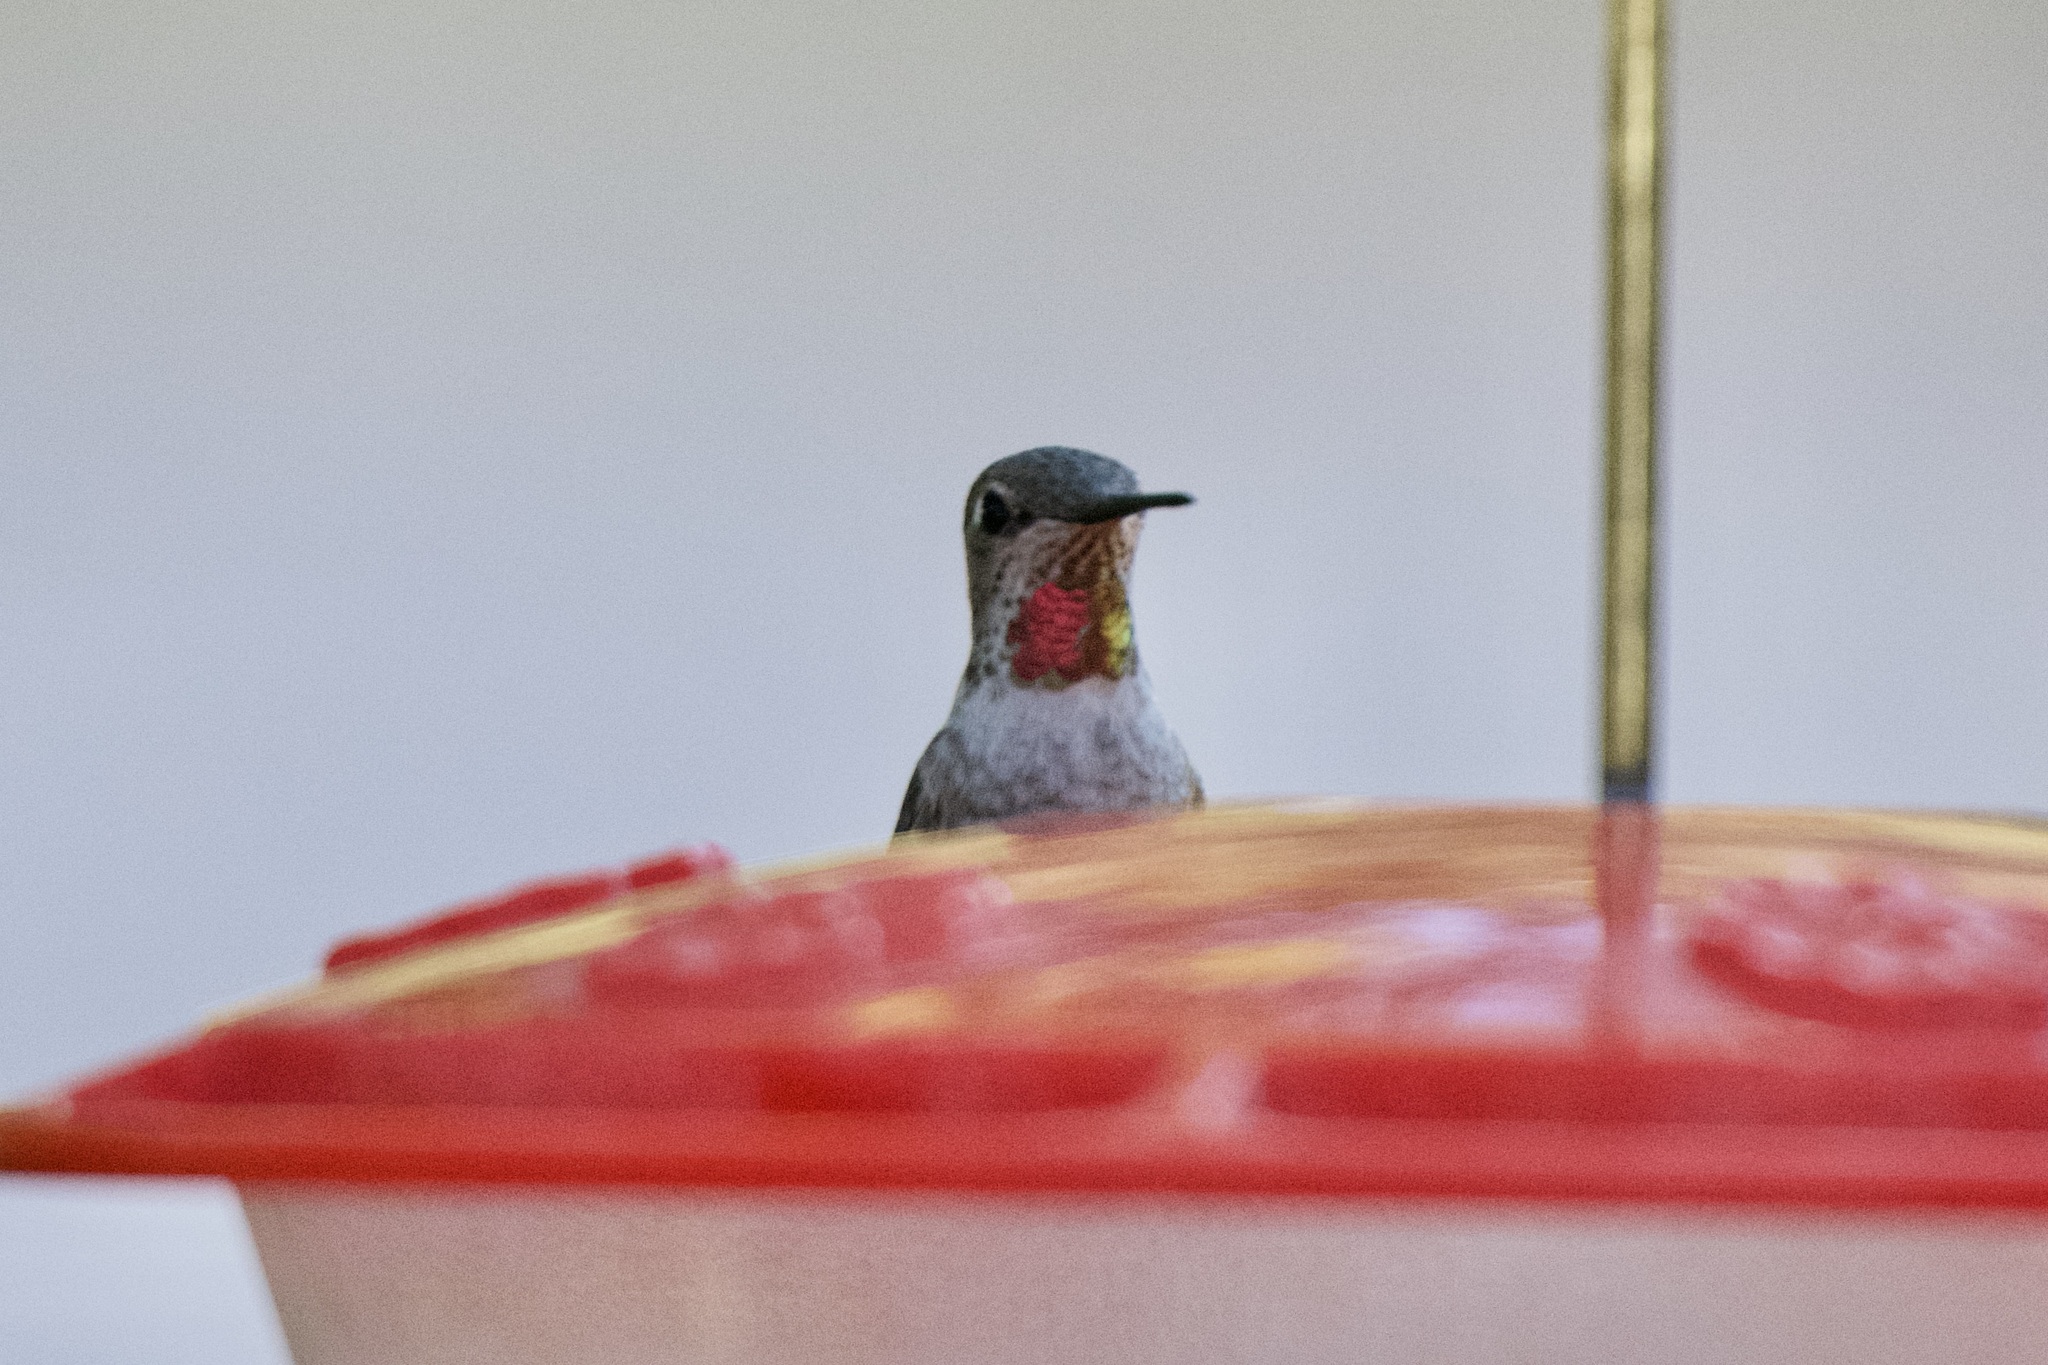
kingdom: Animalia
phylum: Chordata
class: Aves
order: Apodiformes
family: Trochilidae
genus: Calypte
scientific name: Calypte anna
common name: Anna's hummingbird
